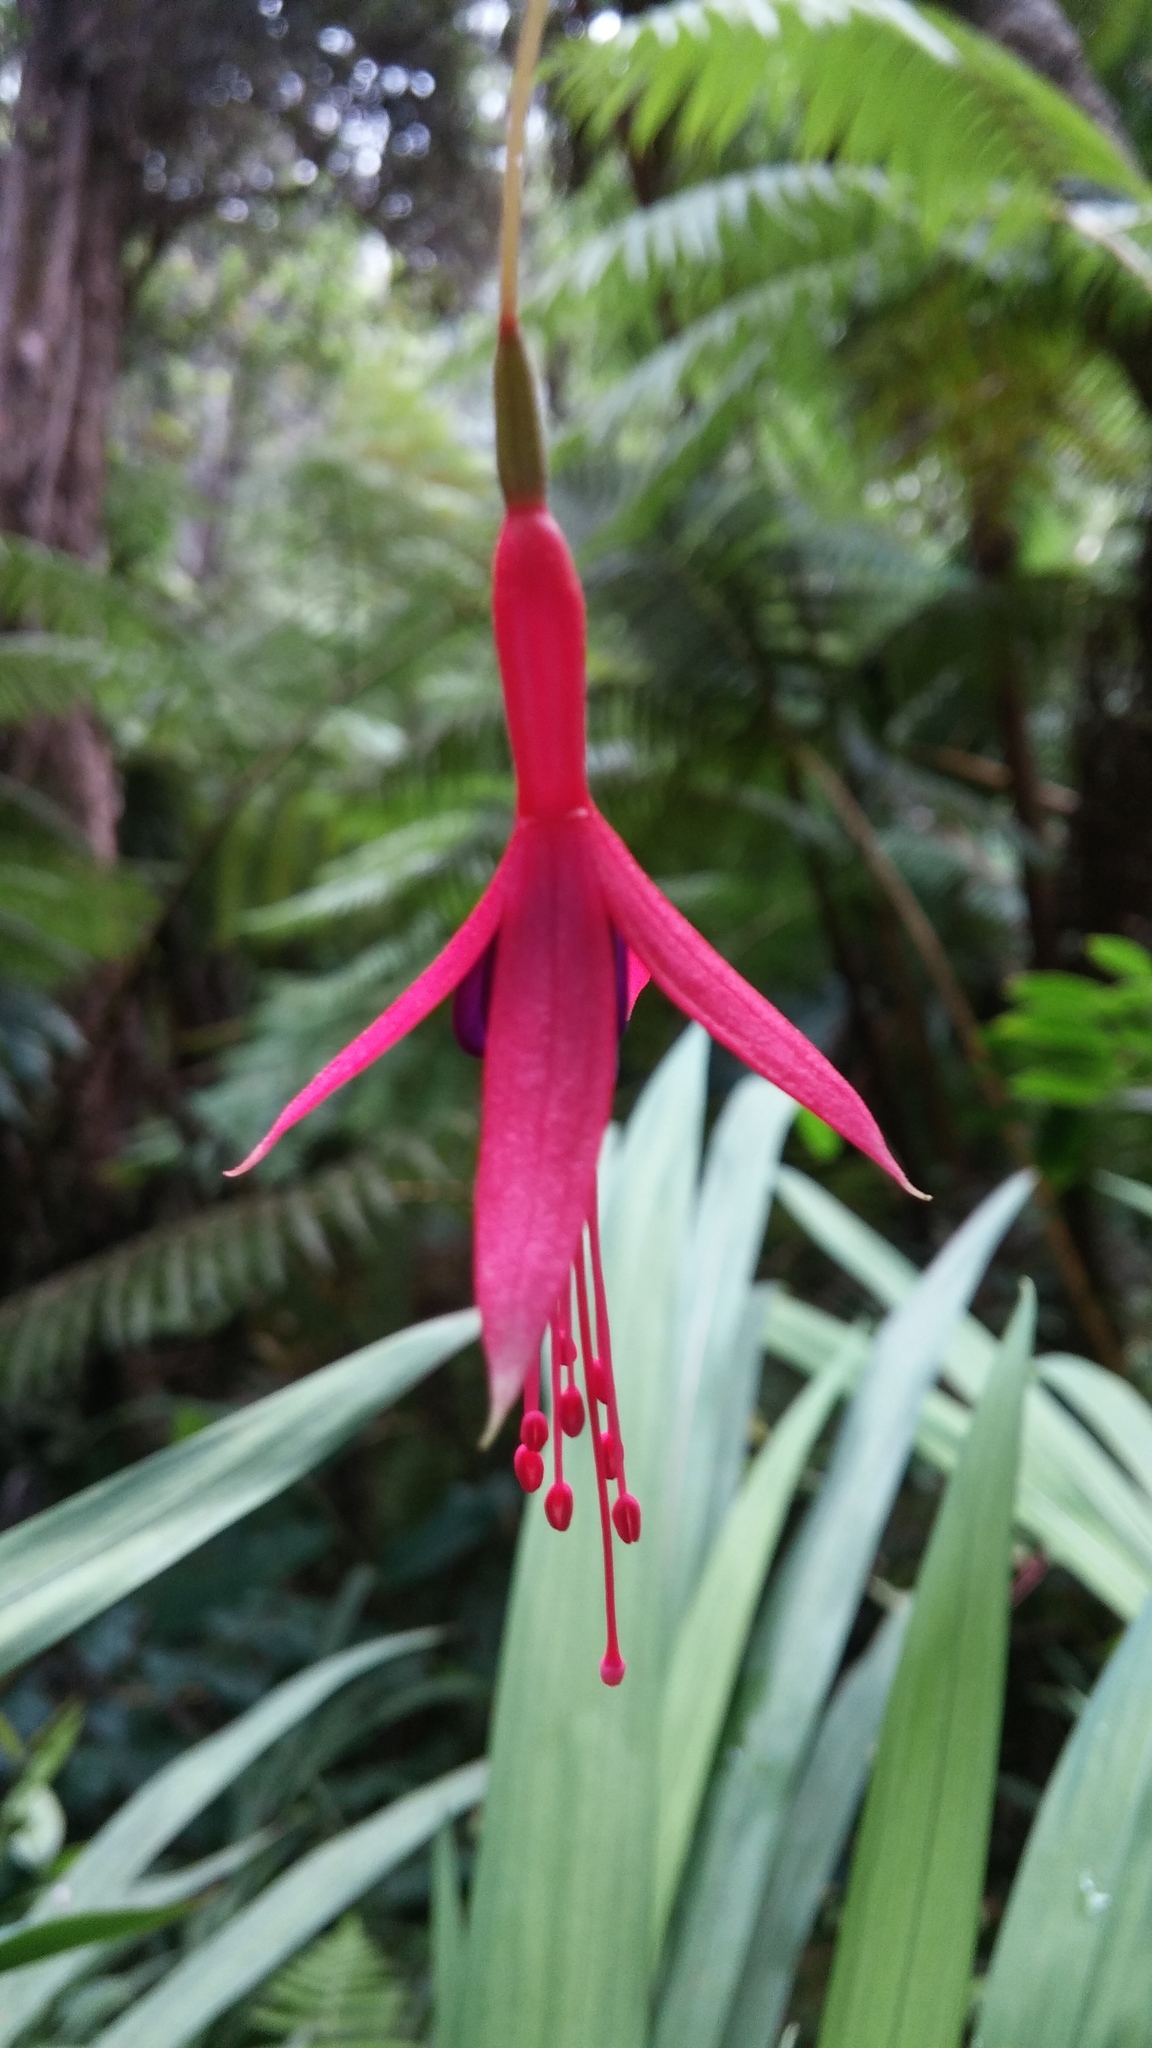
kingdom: Plantae
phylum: Tracheophyta
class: Magnoliopsida
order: Myrtales
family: Onagraceae
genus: Fuchsia
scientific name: Fuchsia magellanica
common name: Hardy fuchsia
